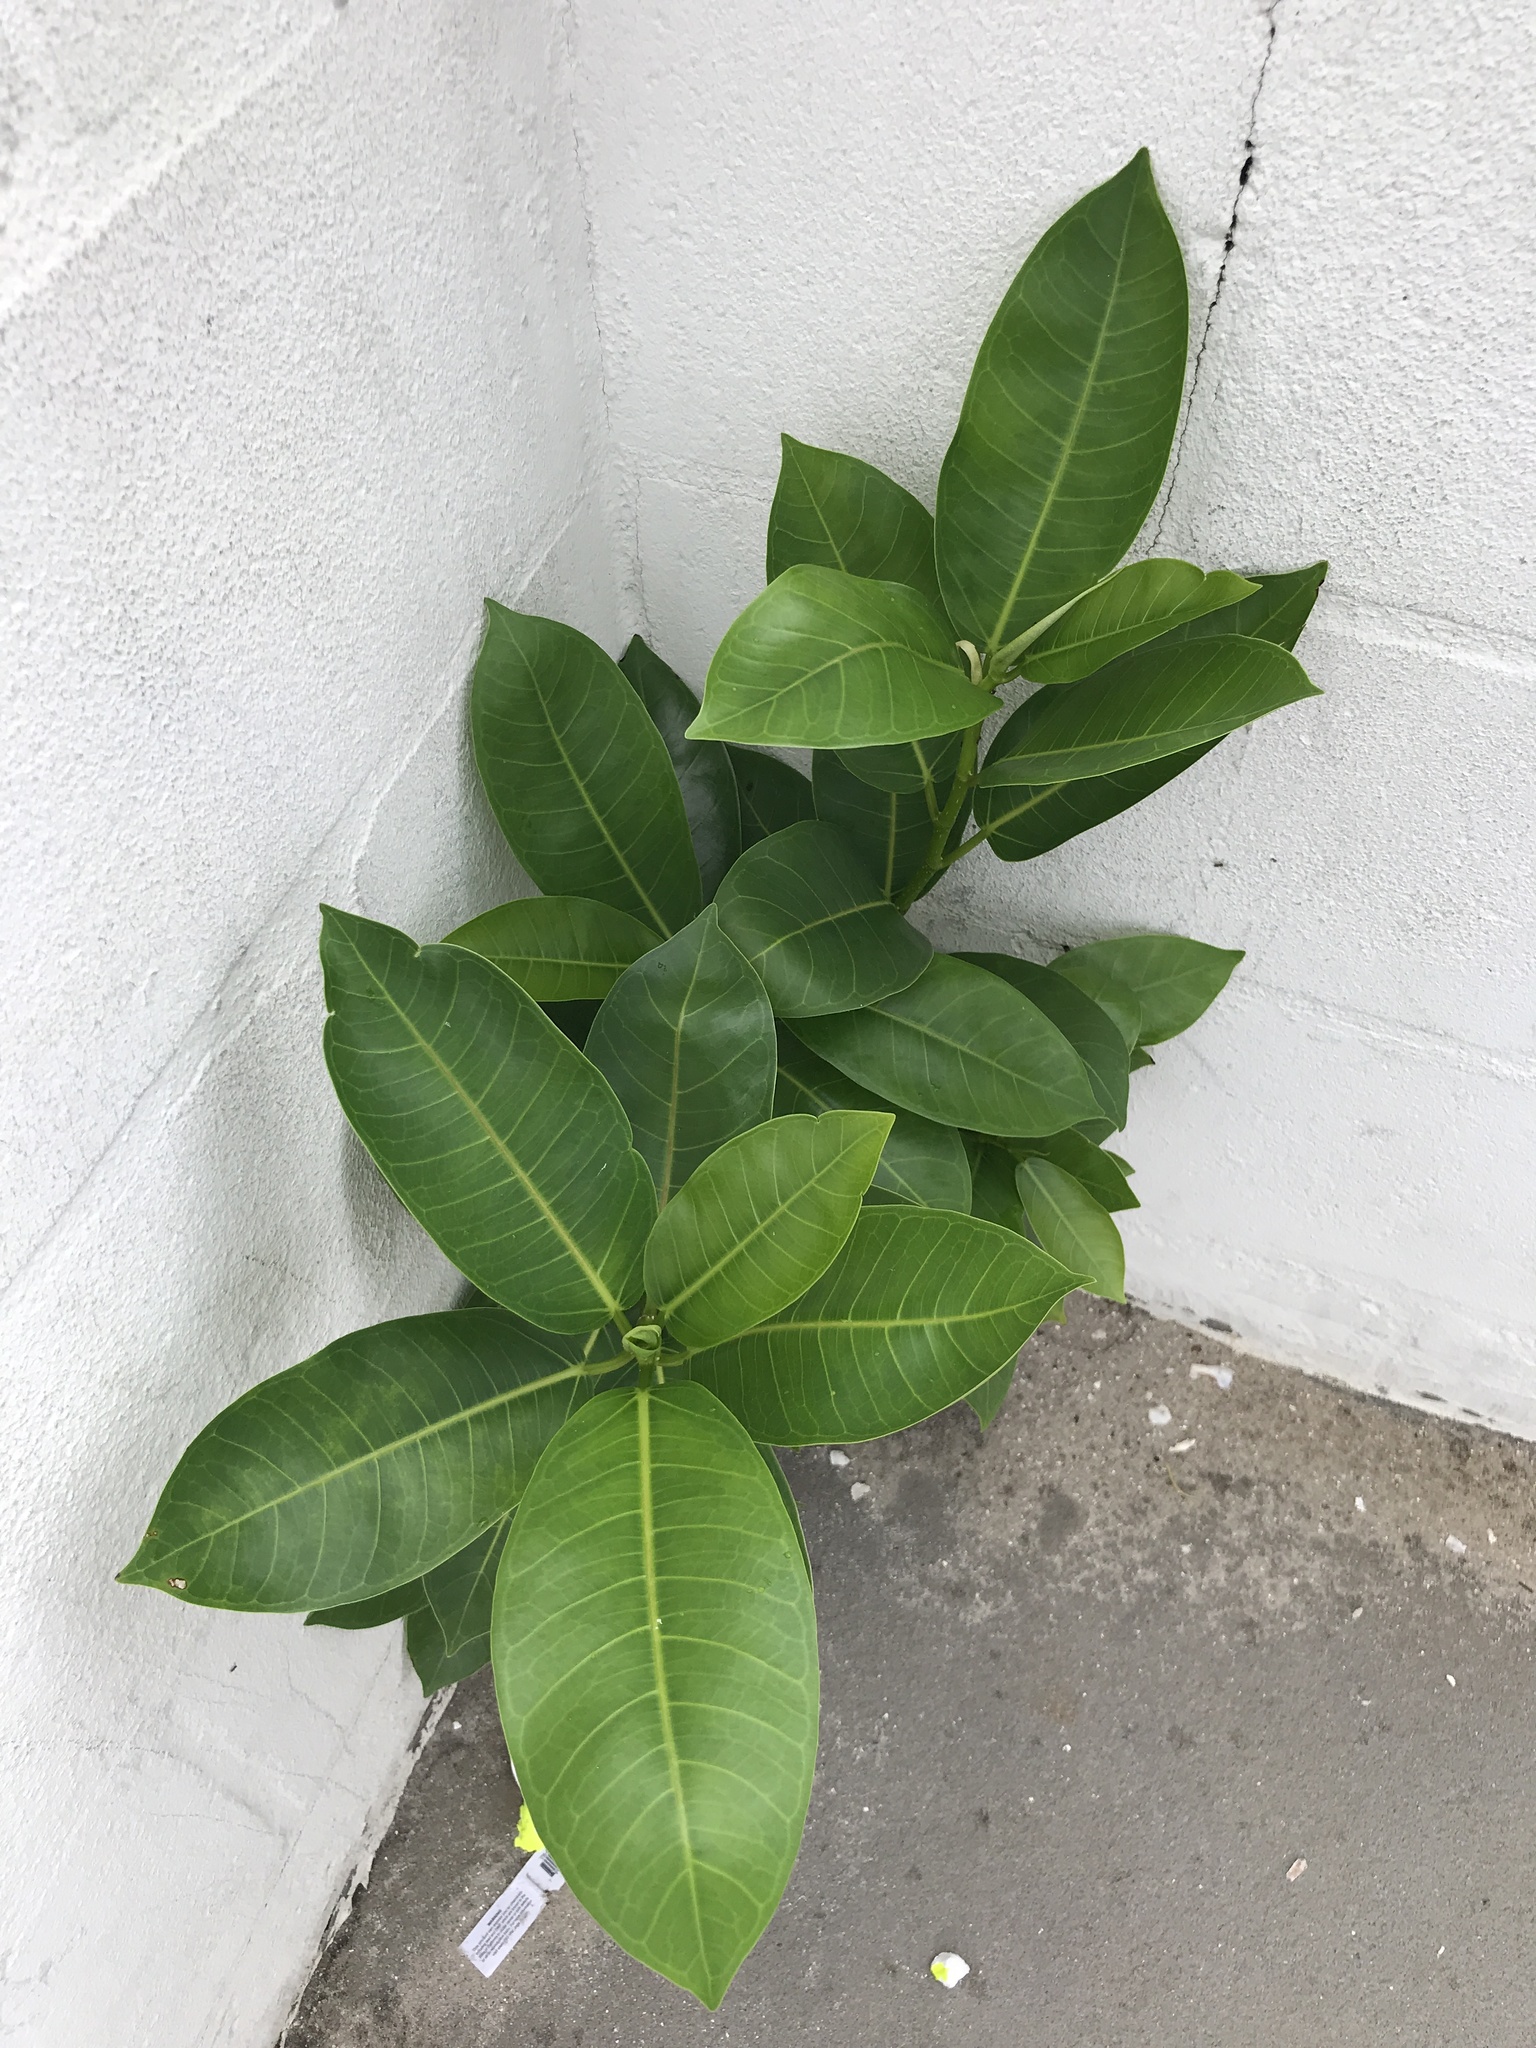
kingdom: Plantae
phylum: Tracheophyta
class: Magnoliopsida
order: Rosales
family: Moraceae
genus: Ficus
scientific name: Ficus aurea
